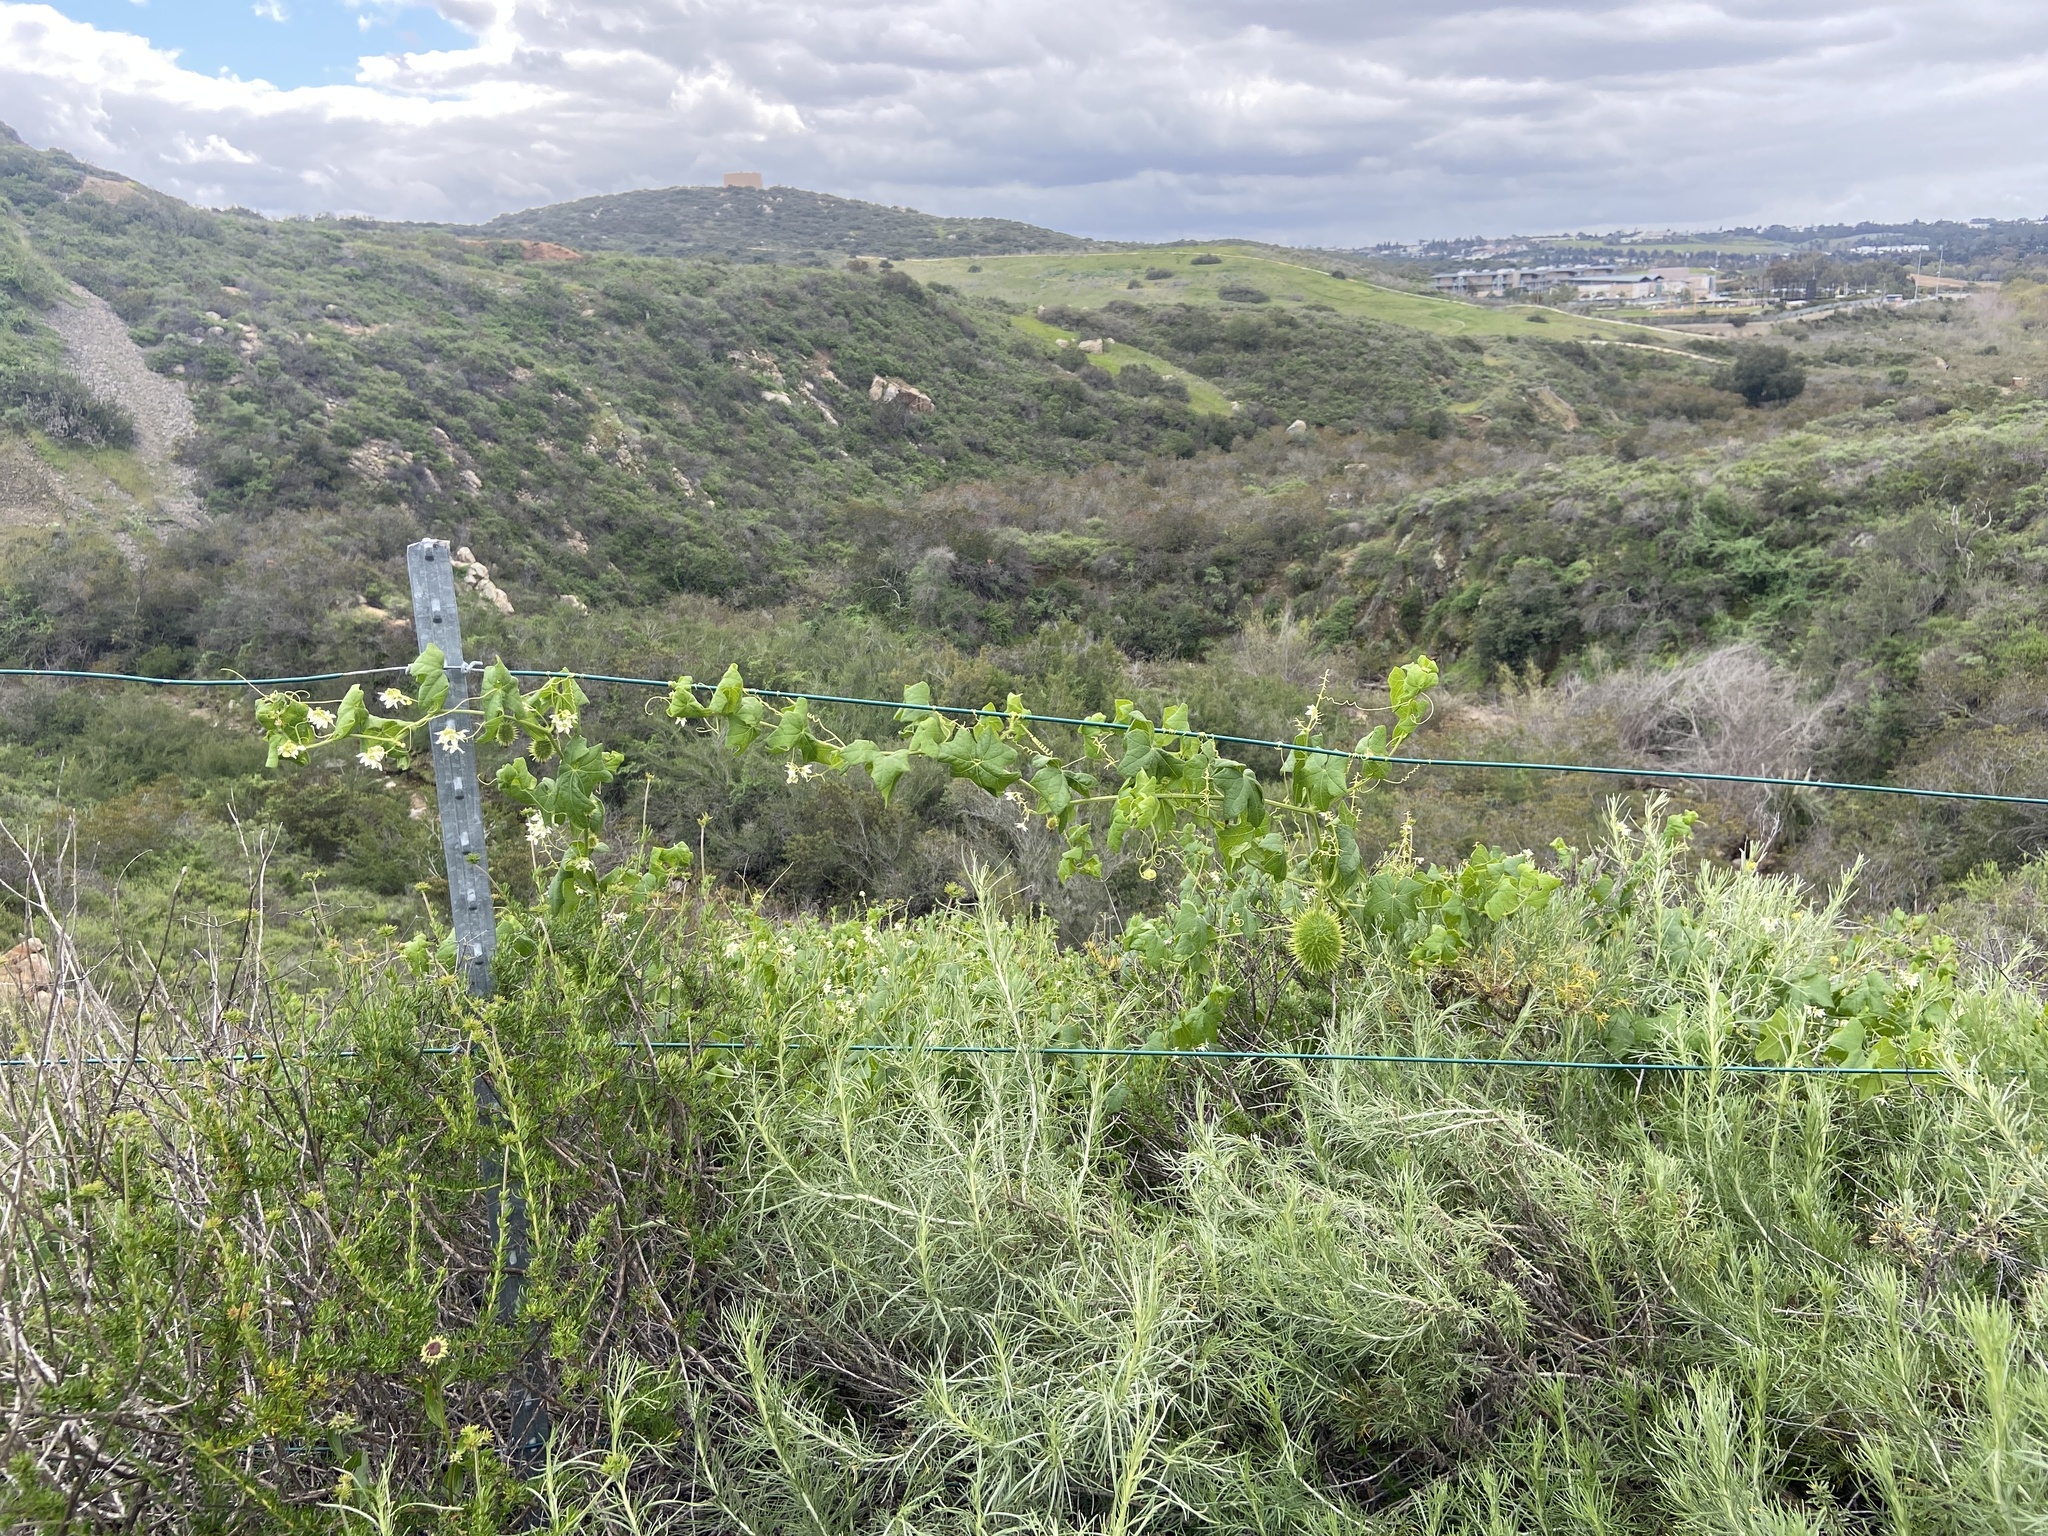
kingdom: Plantae
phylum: Tracheophyta
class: Magnoliopsida
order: Cucurbitales
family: Cucurbitaceae
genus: Marah
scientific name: Marah macrocarpa
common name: Cucamonga manroot
